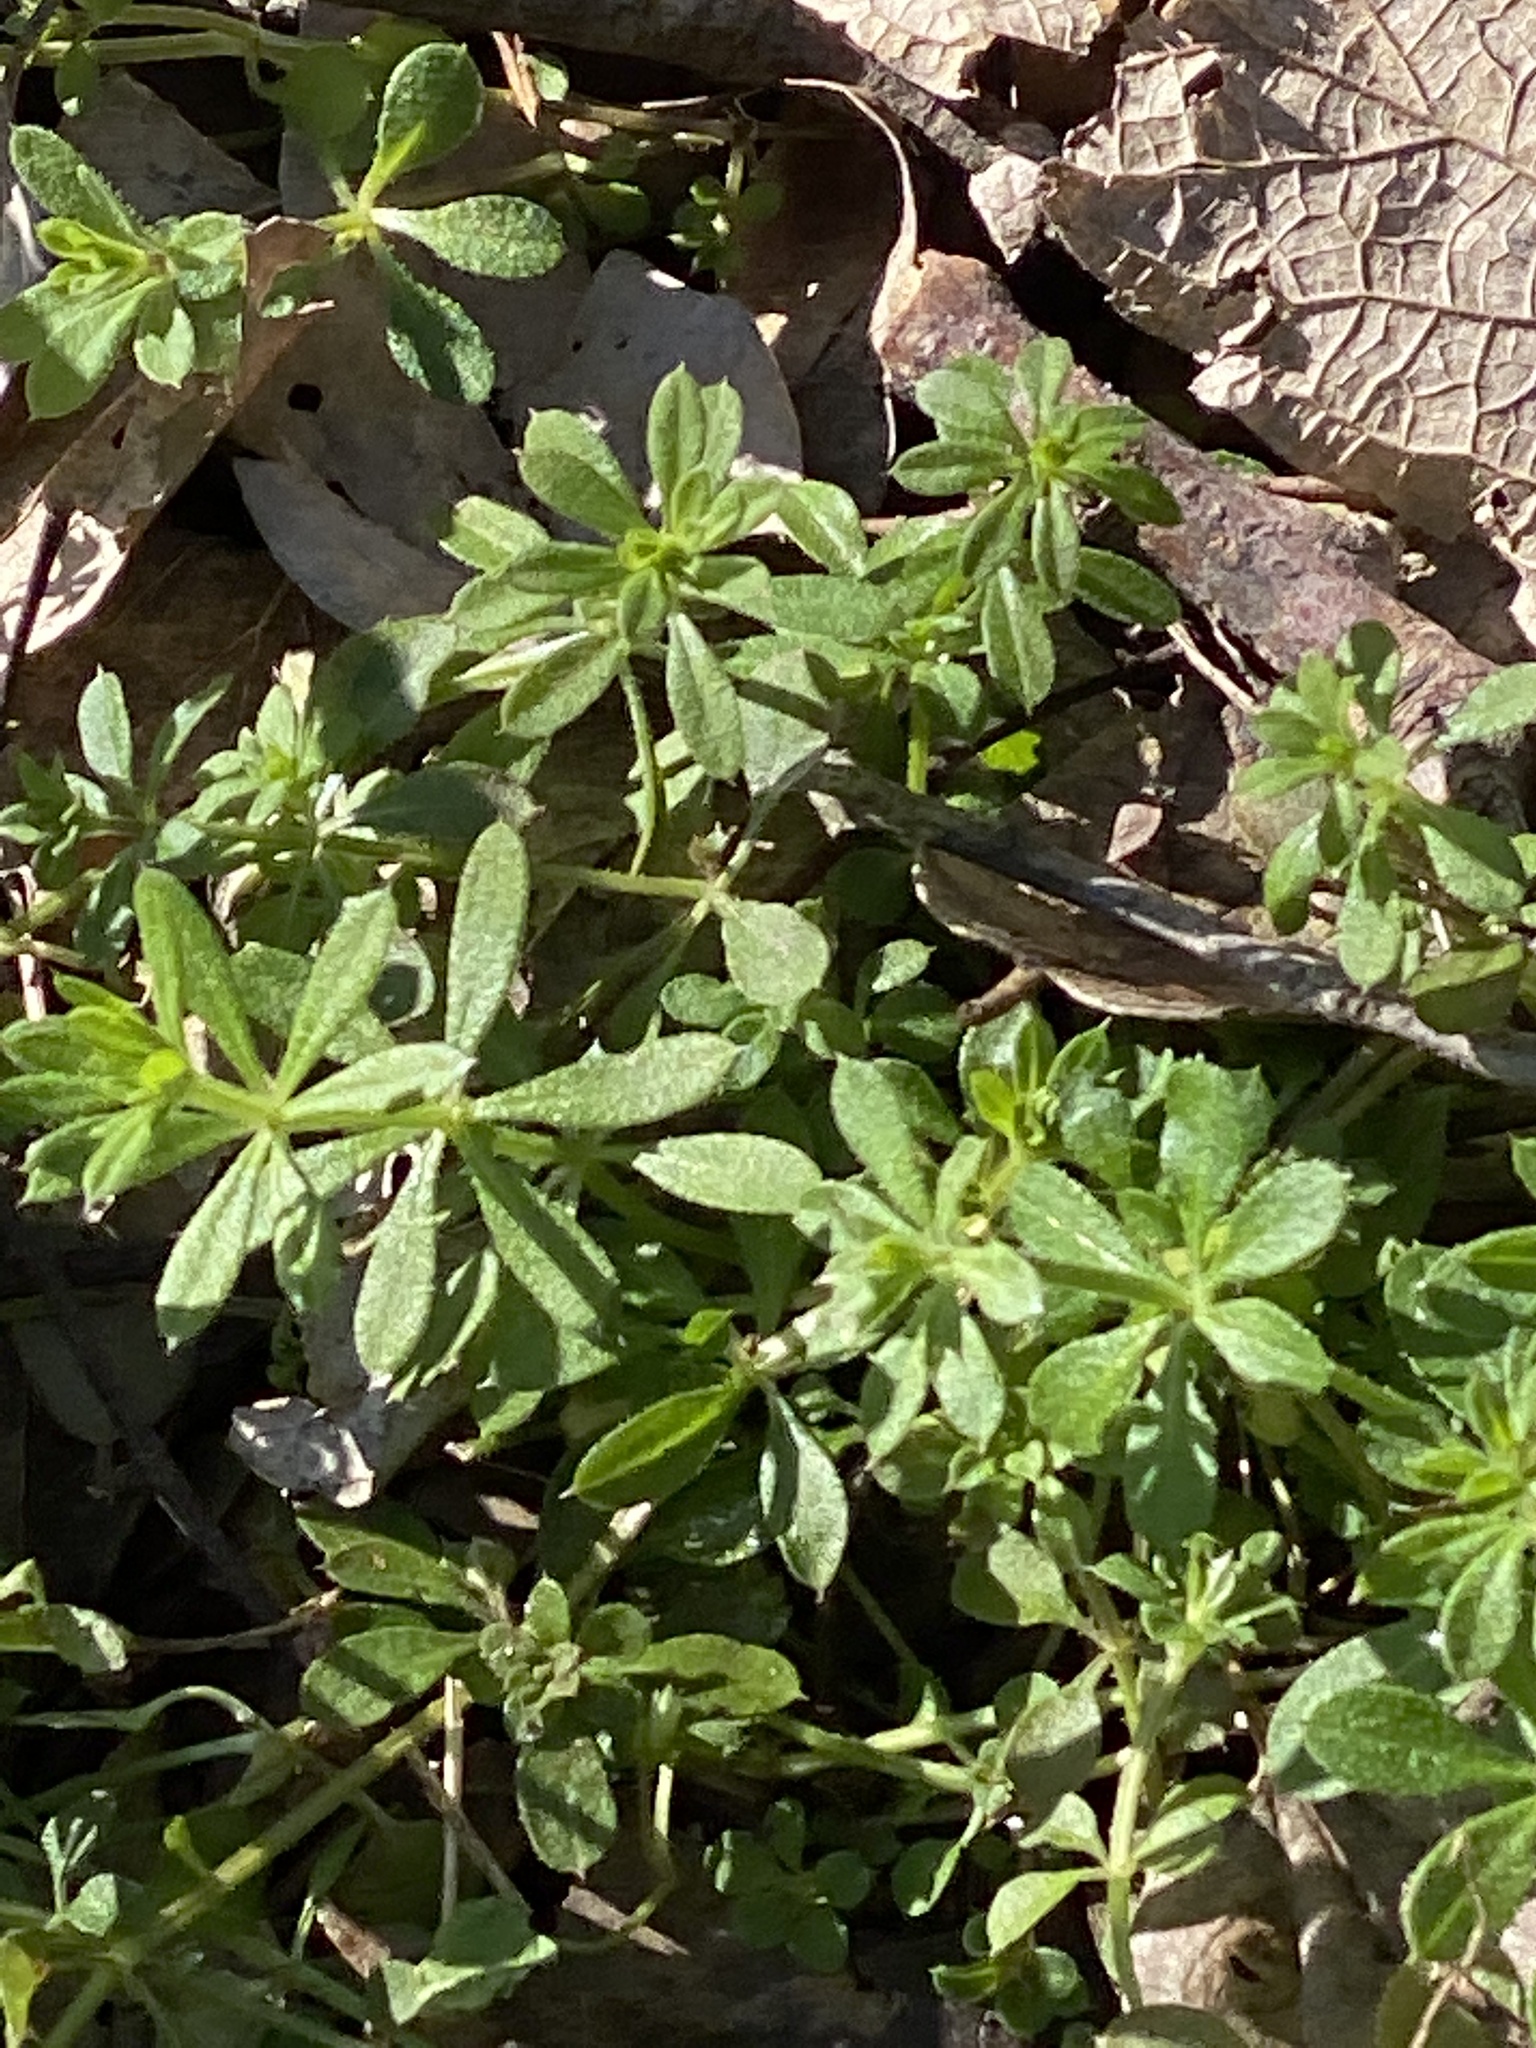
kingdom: Plantae
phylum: Tracheophyta
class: Magnoliopsida
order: Gentianales
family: Rubiaceae
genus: Galium
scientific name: Galium aparine
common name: Cleavers
